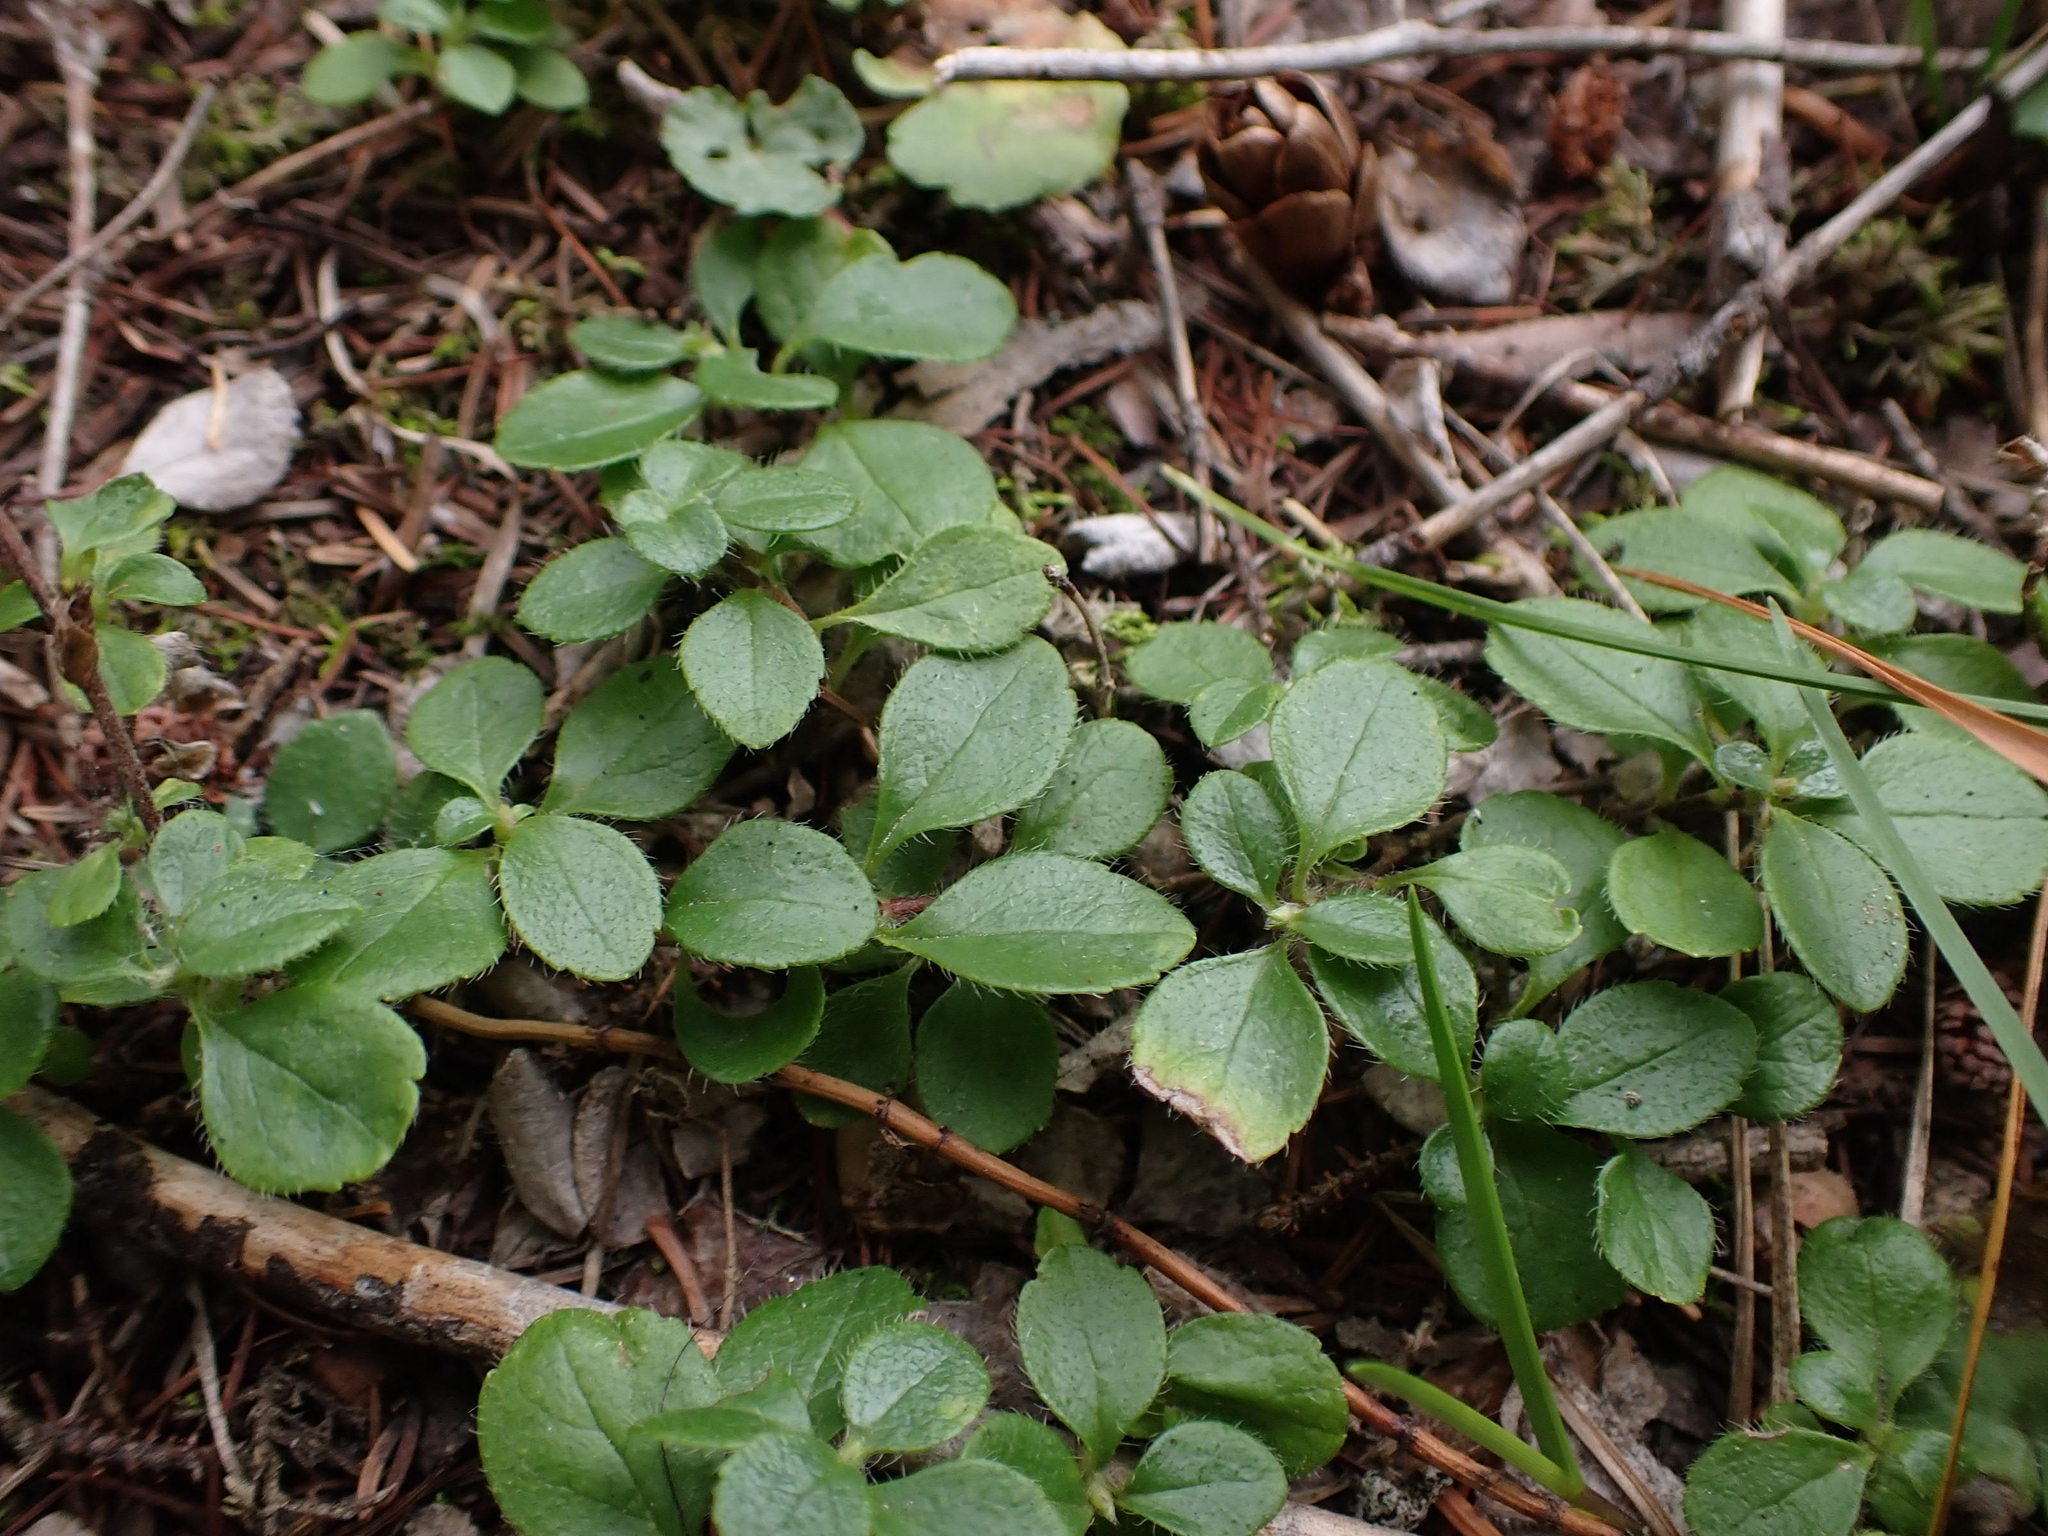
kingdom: Plantae
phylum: Tracheophyta
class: Magnoliopsida
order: Dipsacales
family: Caprifoliaceae
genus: Linnaea
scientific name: Linnaea borealis
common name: Twinflower
